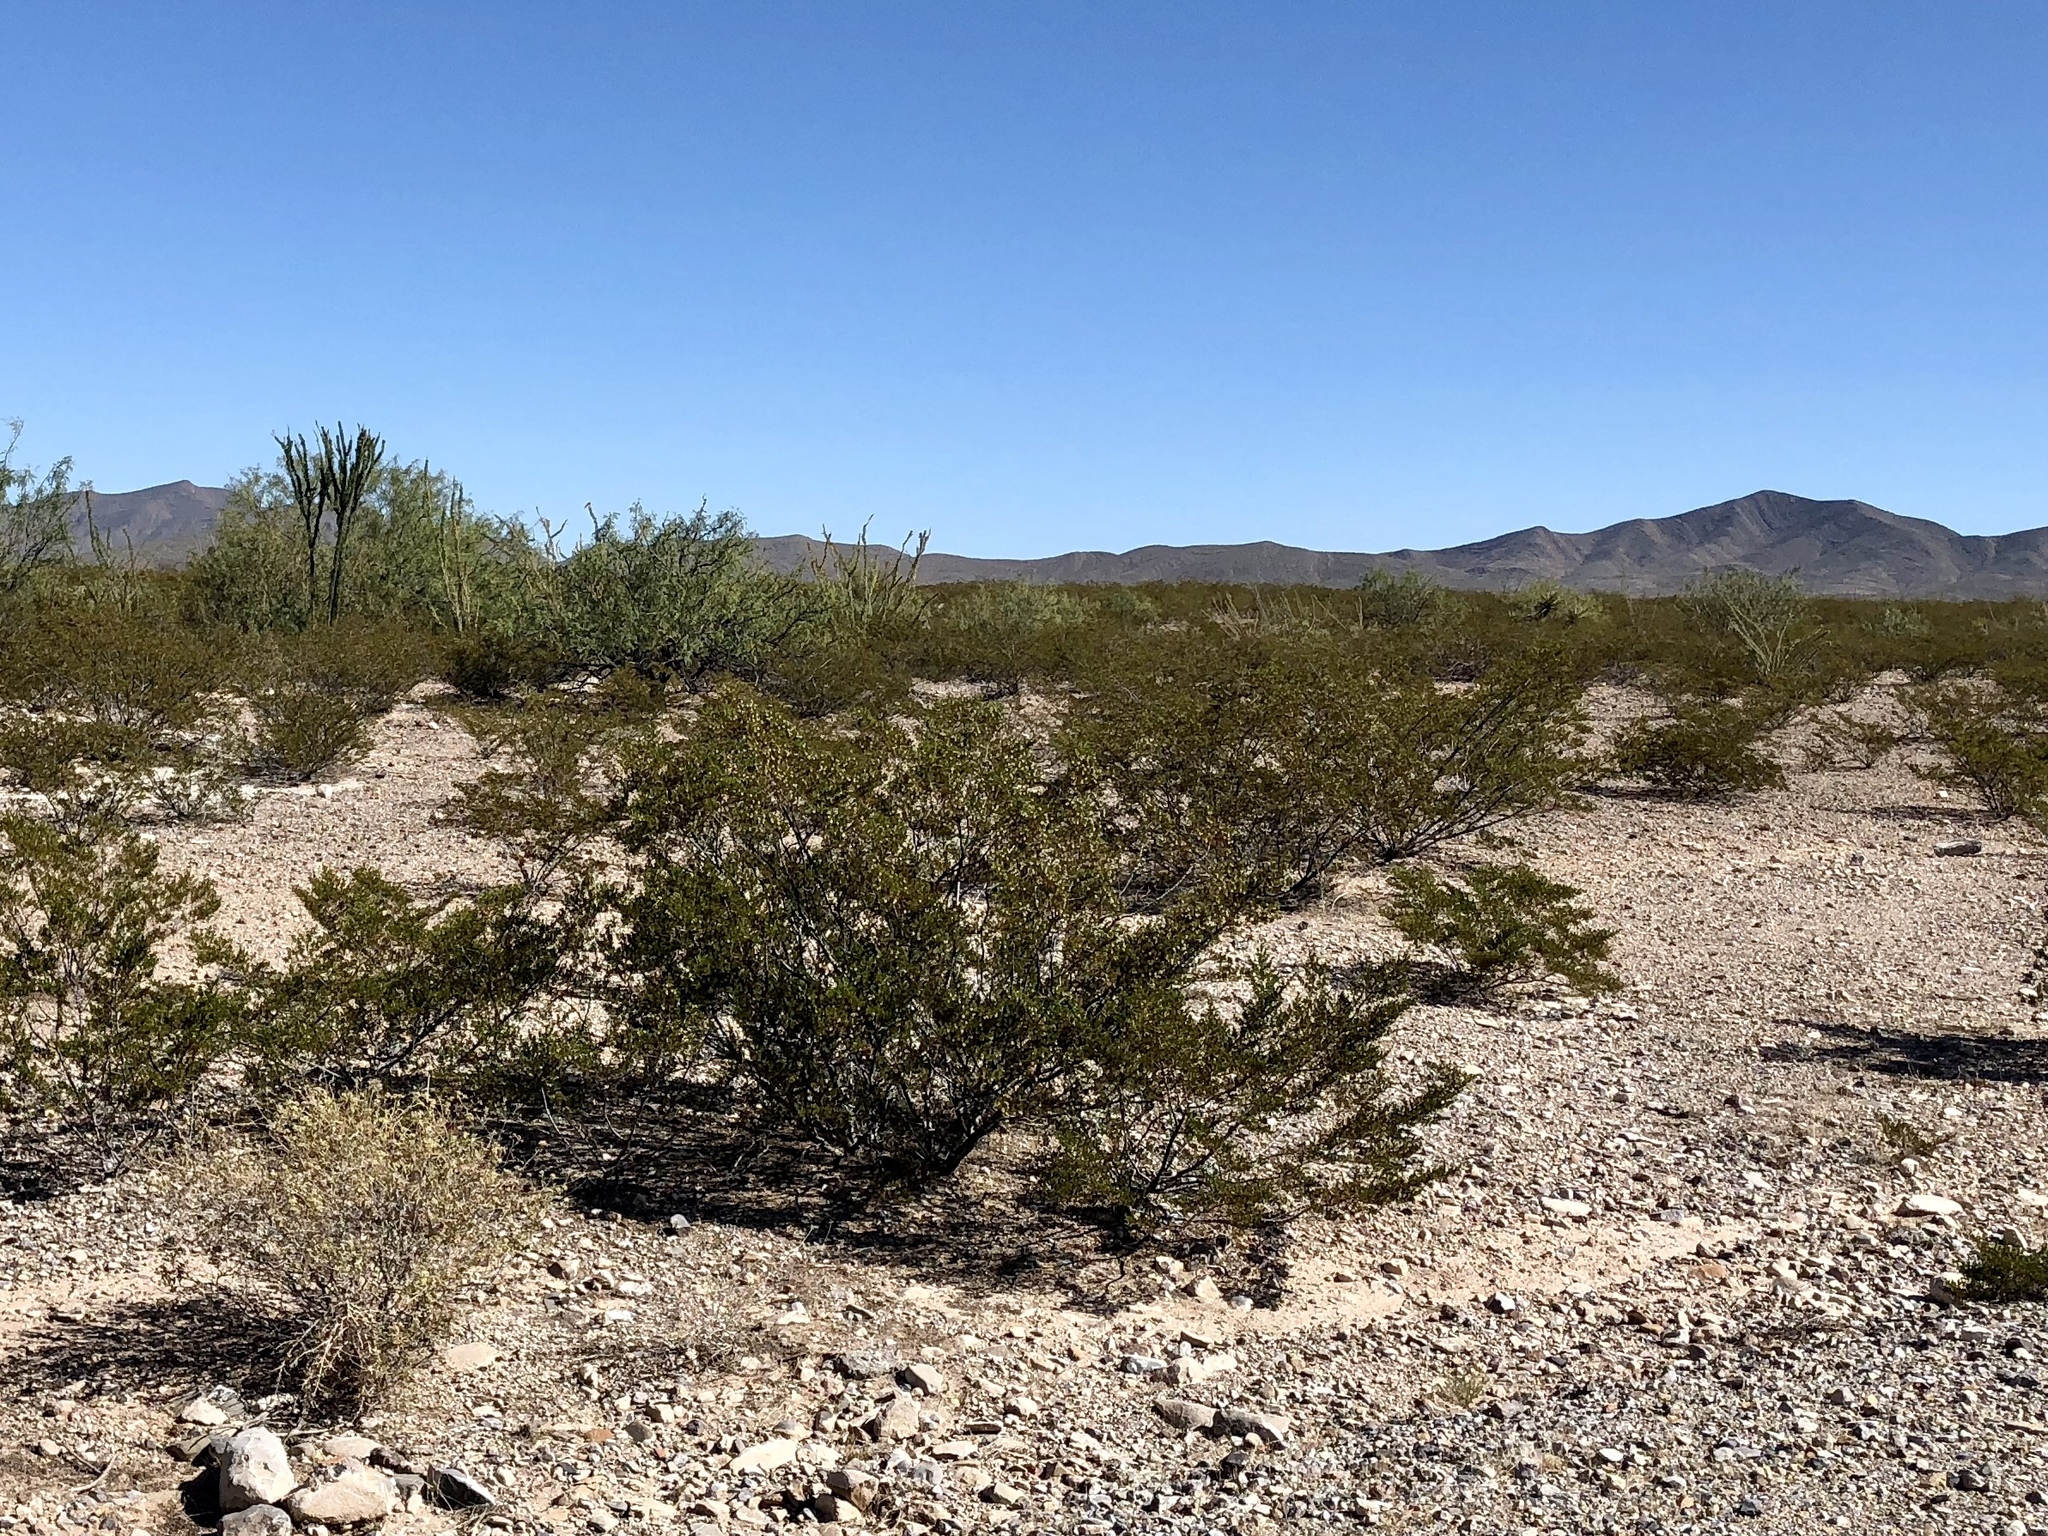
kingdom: Plantae
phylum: Tracheophyta
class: Magnoliopsida
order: Zygophyllales
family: Zygophyllaceae
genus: Larrea
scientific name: Larrea tridentata
